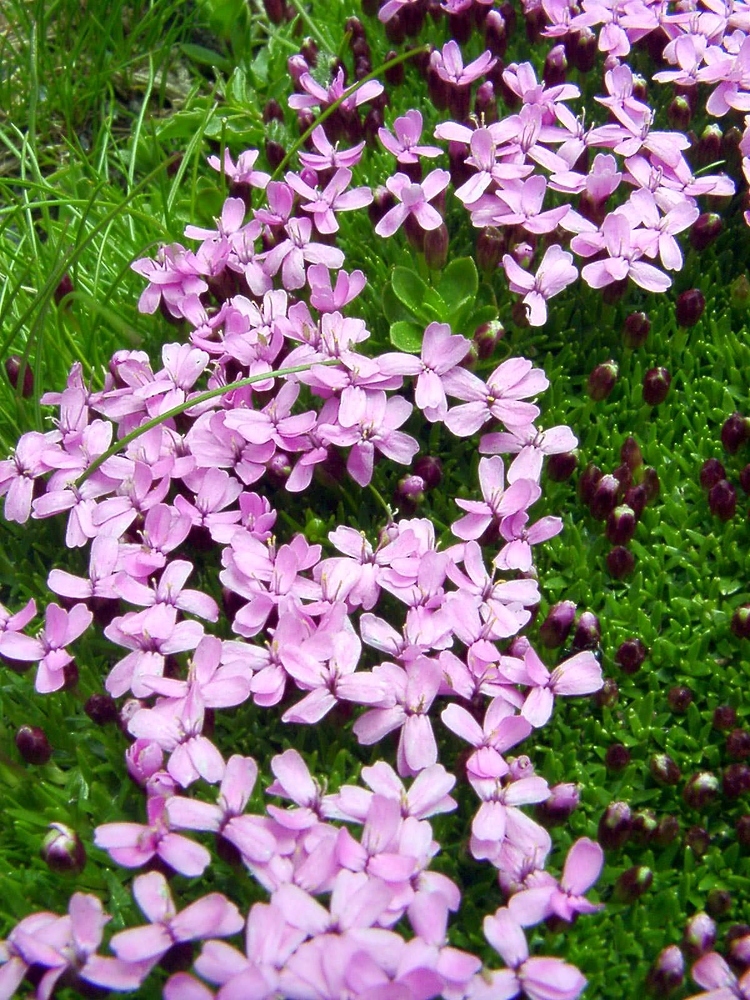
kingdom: Plantae
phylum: Tracheophyta
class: Magnoliopsida
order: Caryophyllales
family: Caryophyllaceae
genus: Silene
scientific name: Silene acaulis
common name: Moss campion
